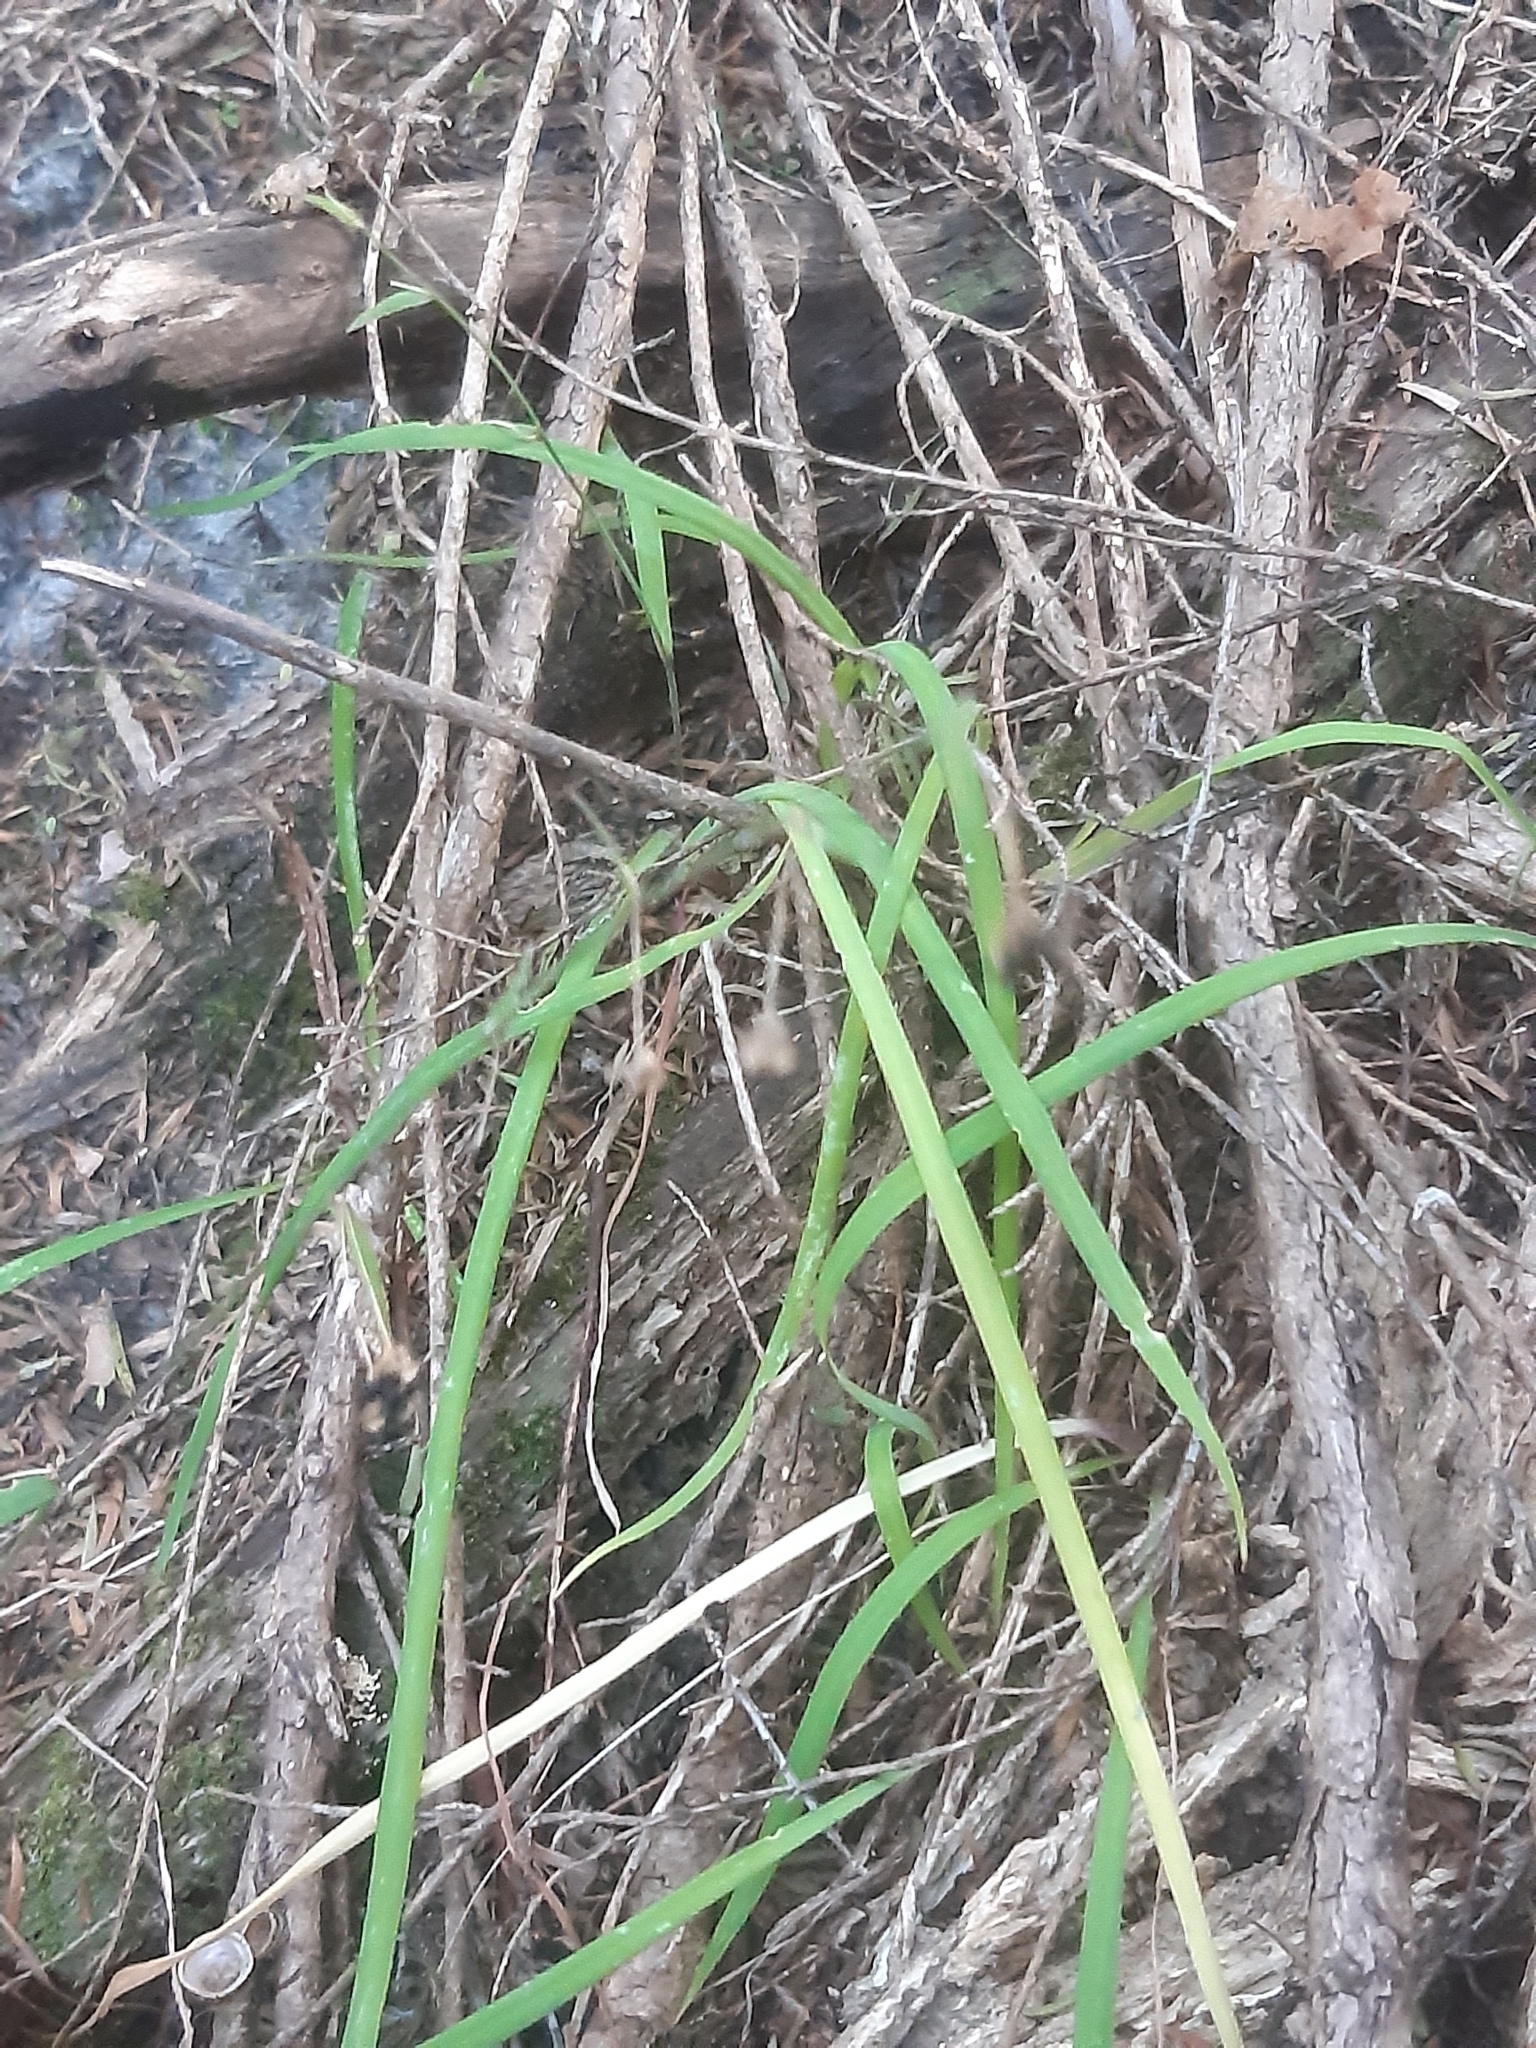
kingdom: Plantae
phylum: Tracheophyta
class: Liliopsida
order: Asparagales
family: Asparagaceae
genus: Arthropodium
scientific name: Arthropodium candidum
